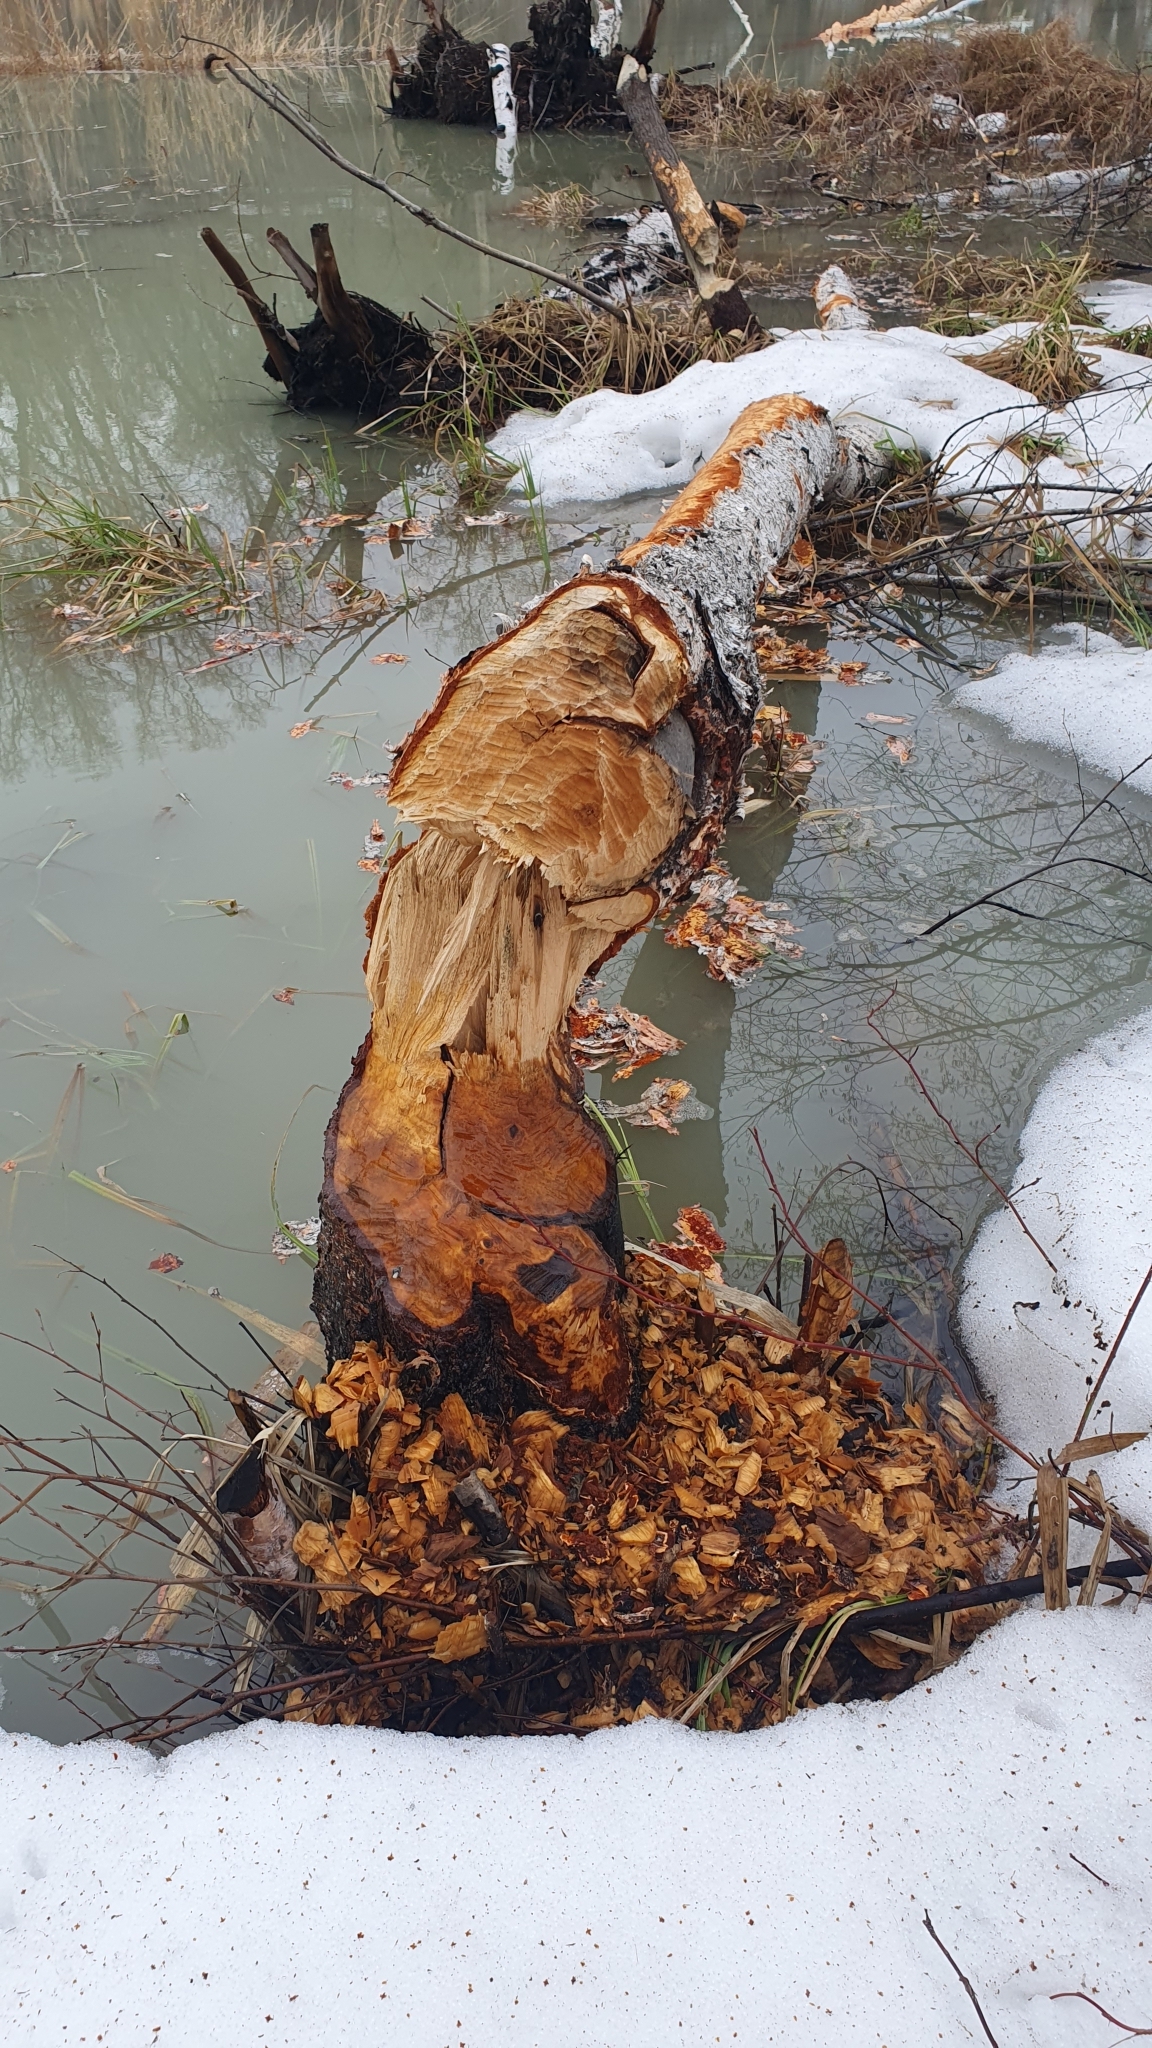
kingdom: Animalia
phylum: Chordata
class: Mammalia
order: Rodentia
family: Castoridae
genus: Castor
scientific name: Castor fiber
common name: Eurasian beaver
